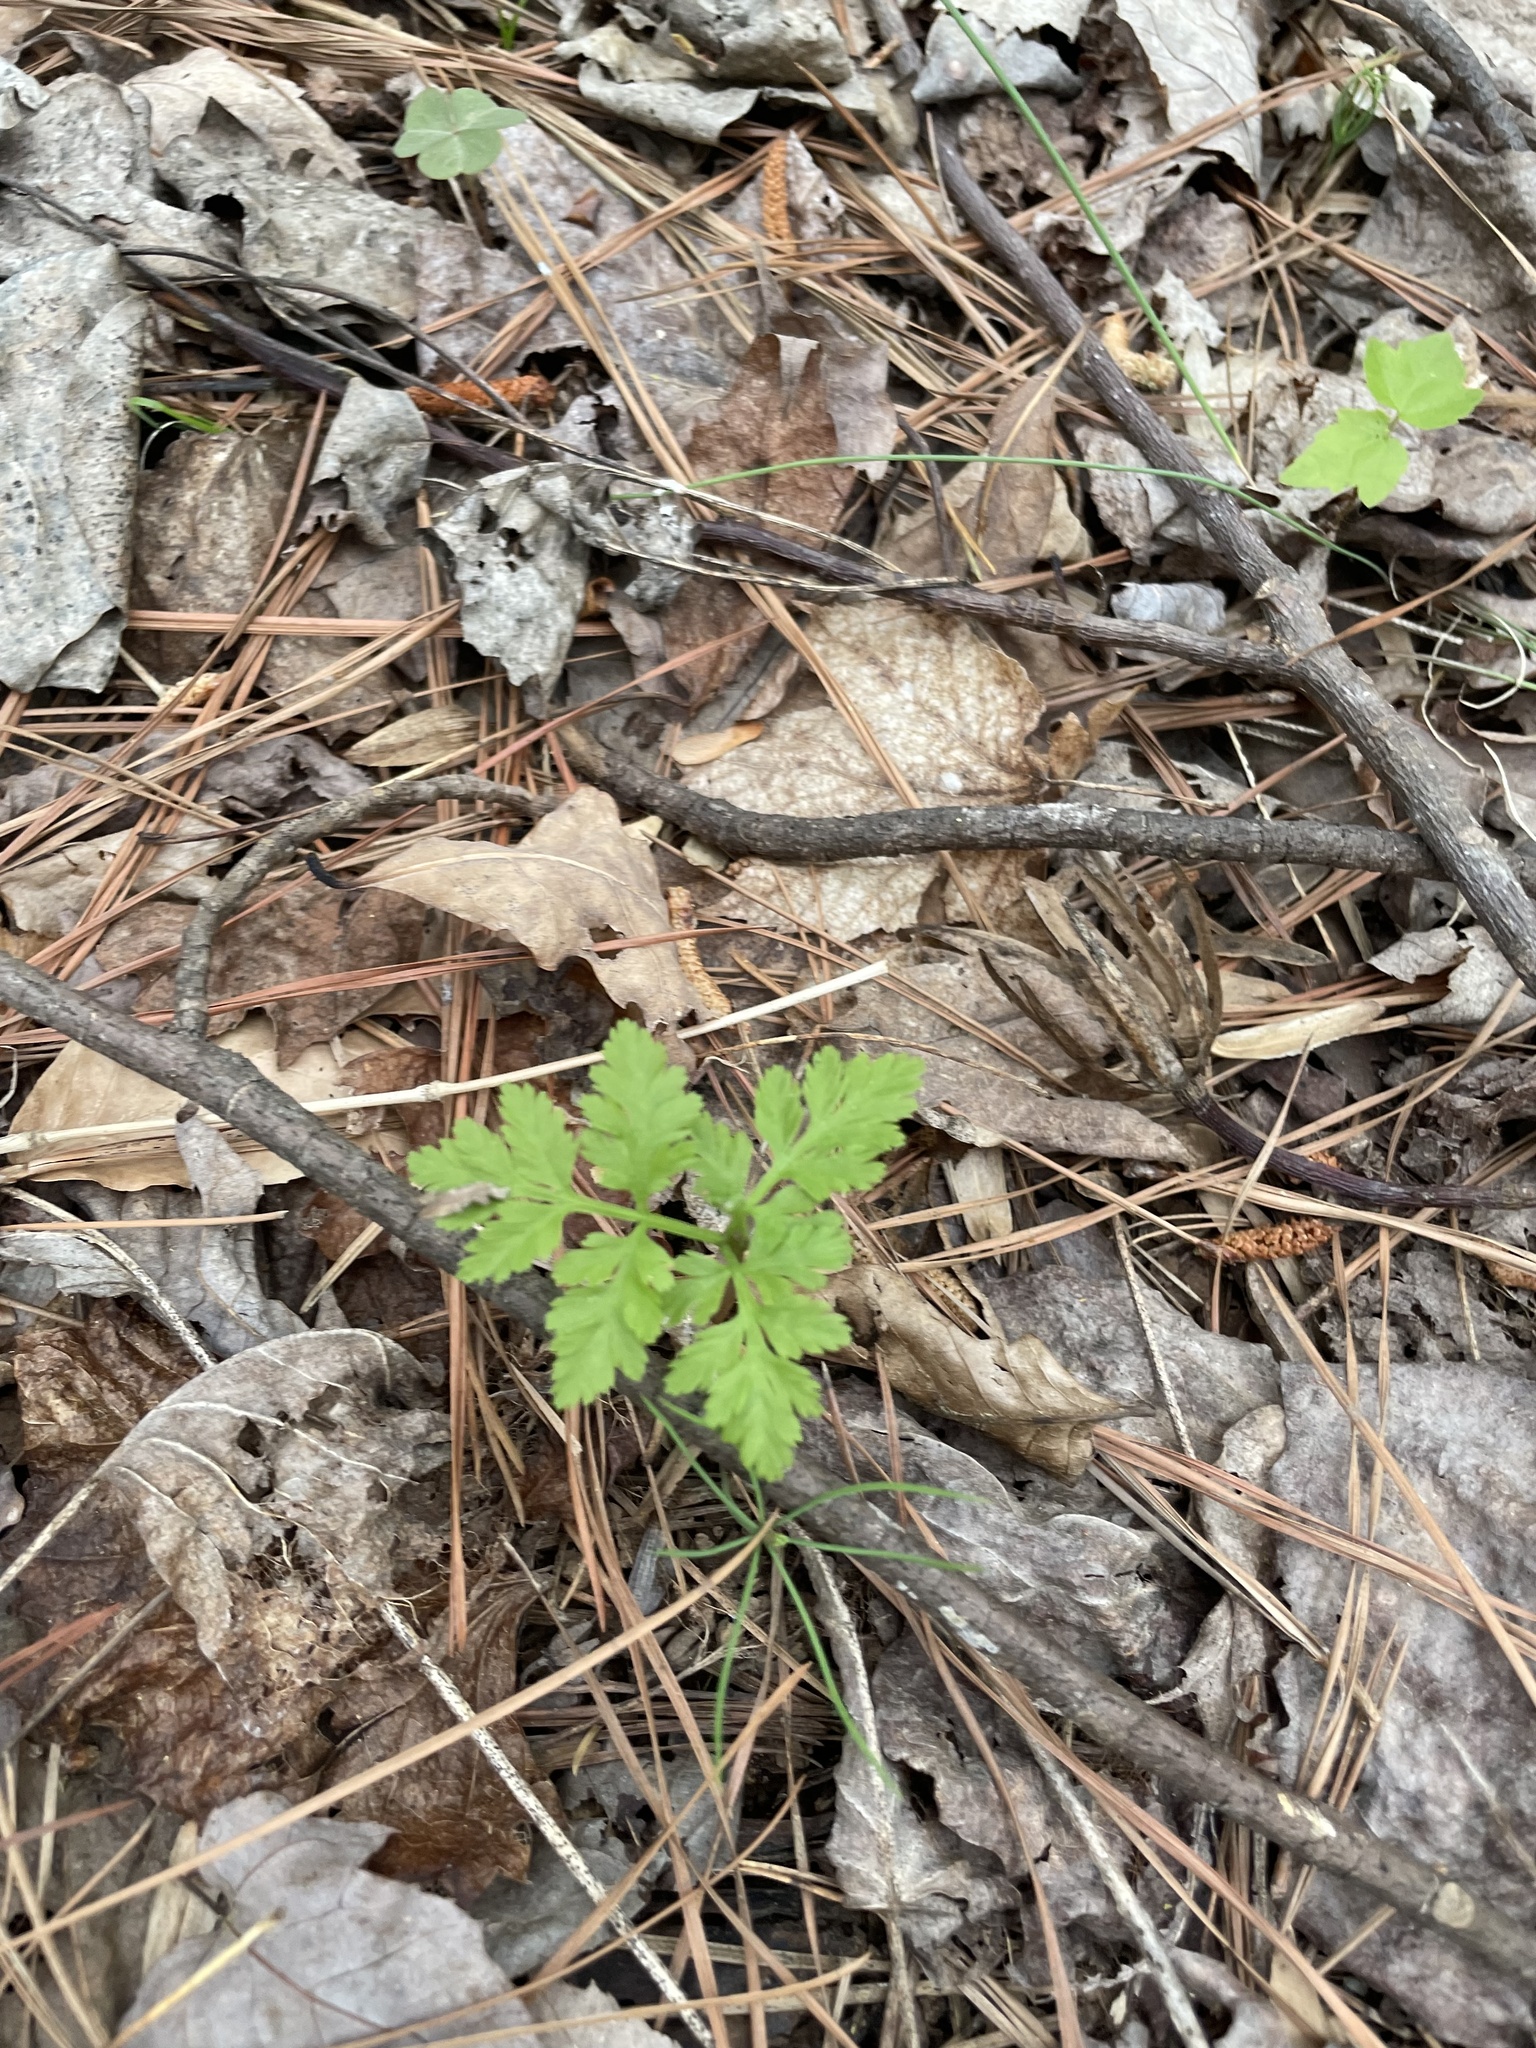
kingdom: Plantae
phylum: Tracheophyta
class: Polypodiopsida
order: Ophioglossales
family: Ophioglossaceae
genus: Botrypus
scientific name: Botrypus virginianus
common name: Common grapefern
